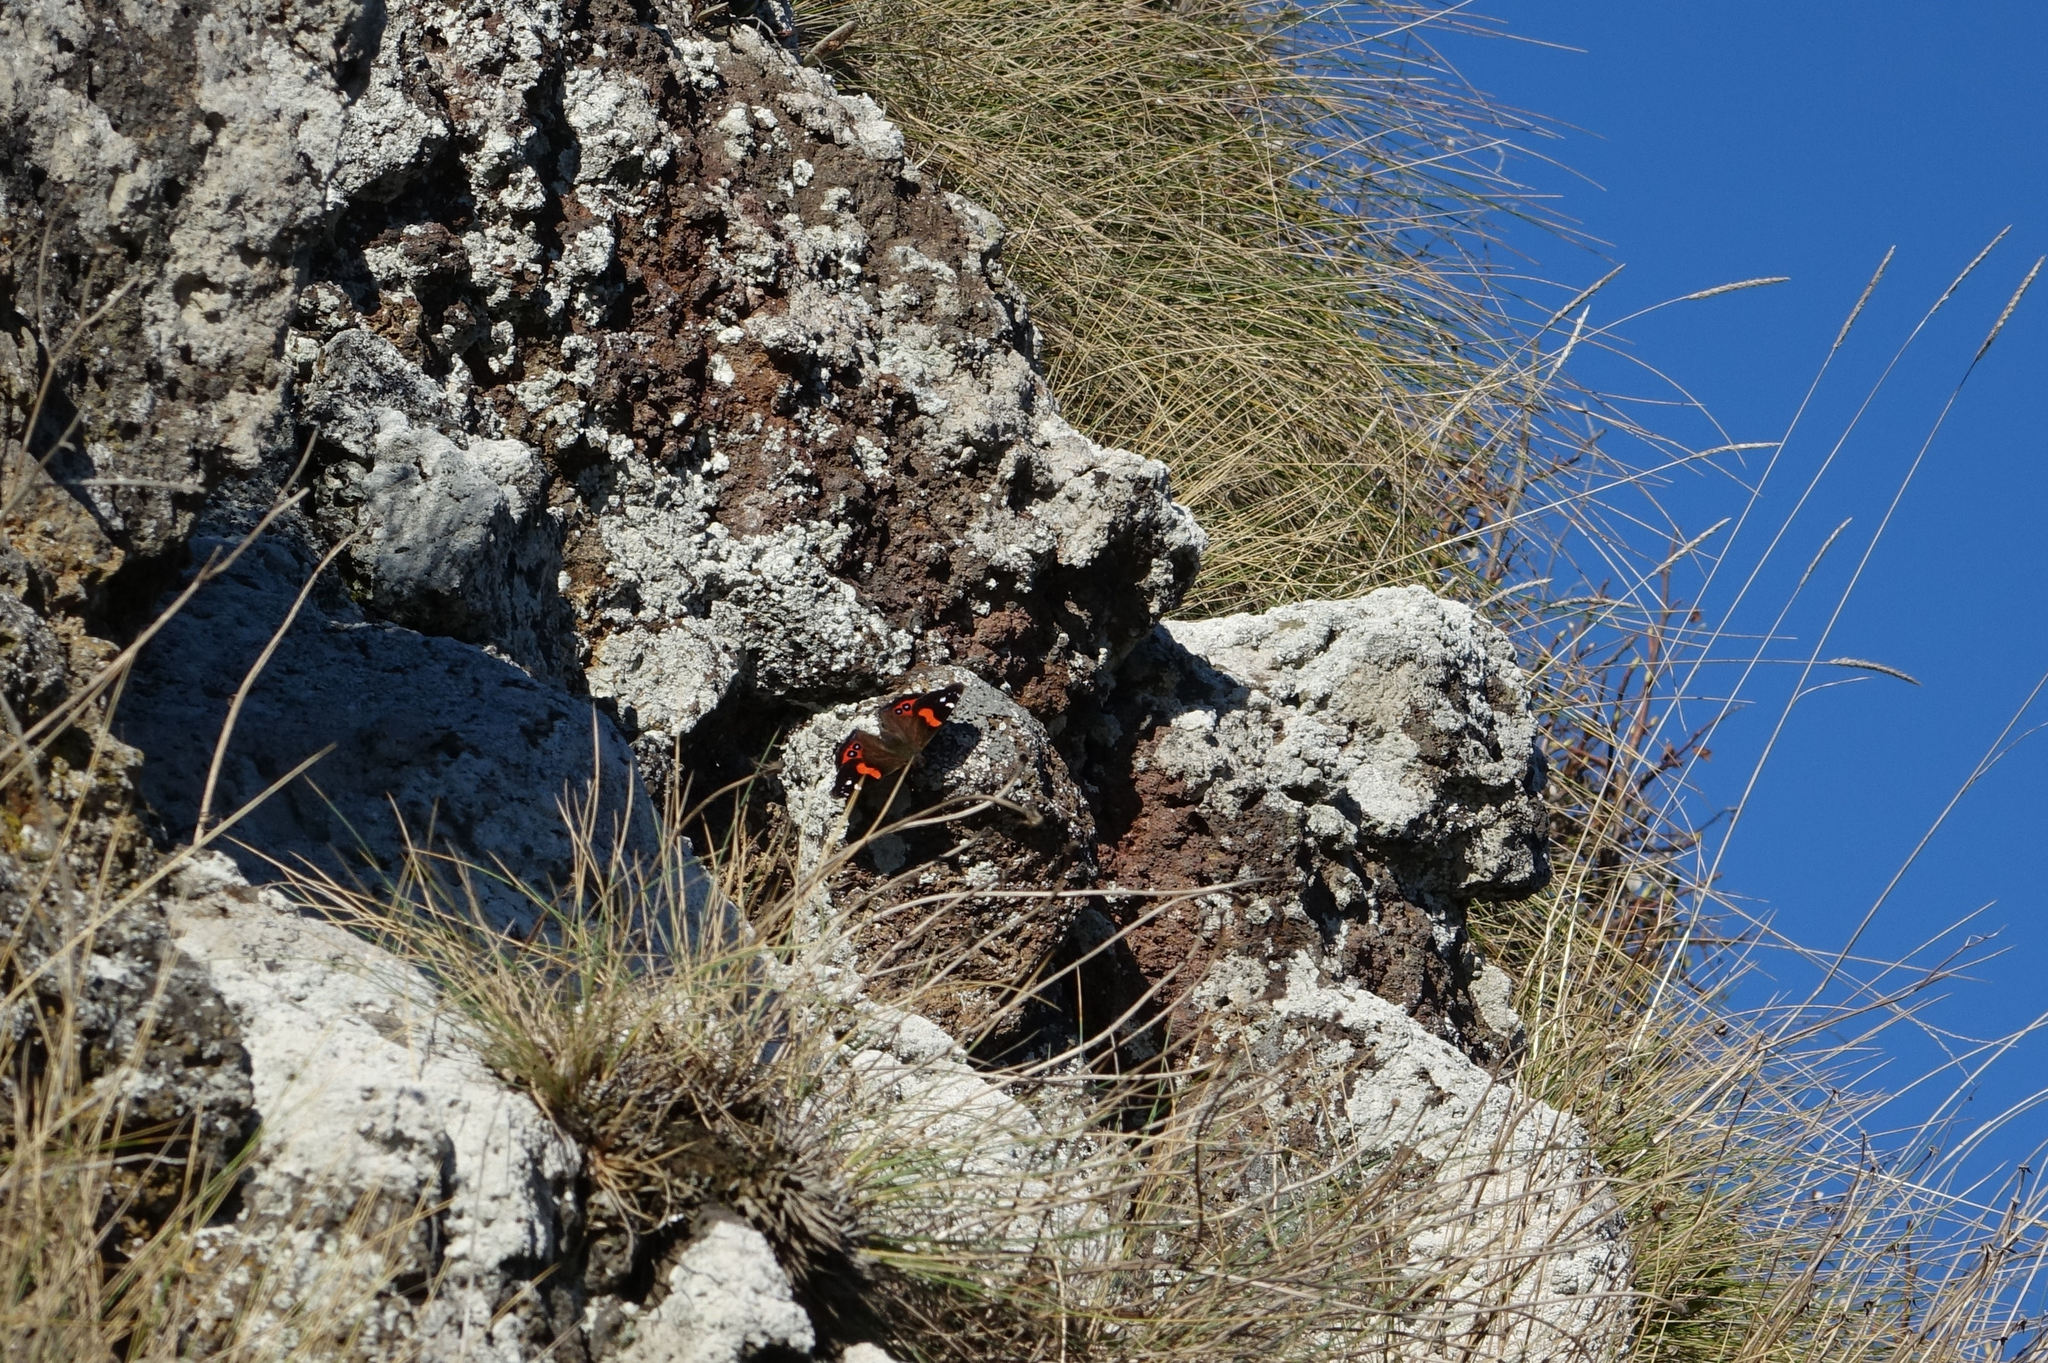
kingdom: Animalia
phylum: Arthropoda
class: Insecta
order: Lepidoptera
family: Nymphalidae
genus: Vanessa
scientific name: Vanessa gonerilla
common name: New zealand red admiral
